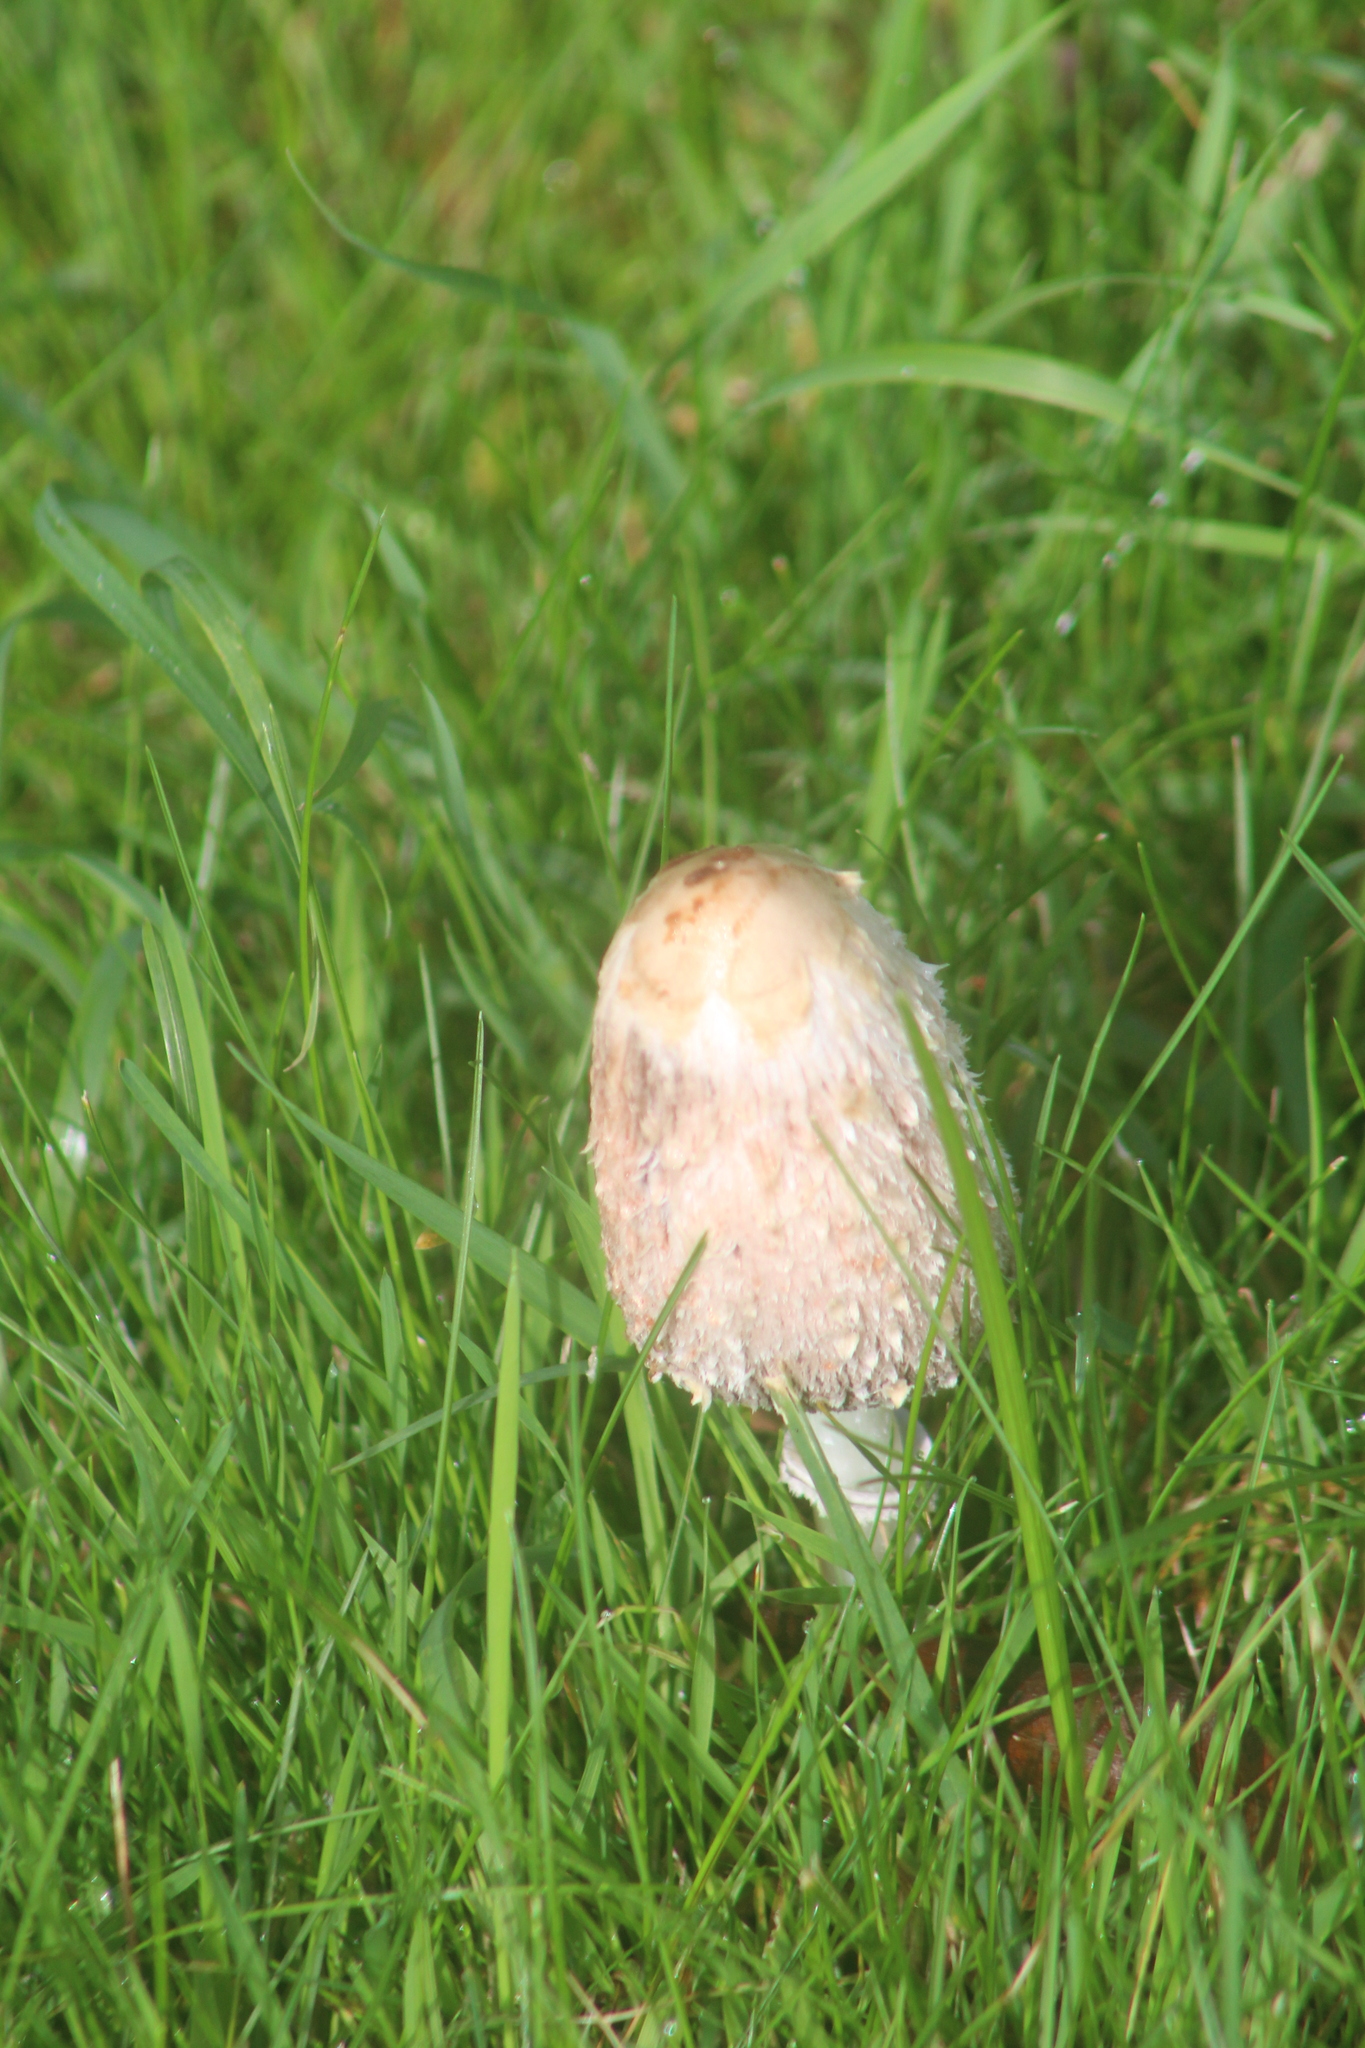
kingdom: Fungi
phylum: Basidiomycota
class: Agaricomycetes
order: Agaricales
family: Agaricaceae
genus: Coprinus
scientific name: Coprinus comatus
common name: Lawyer's wig
